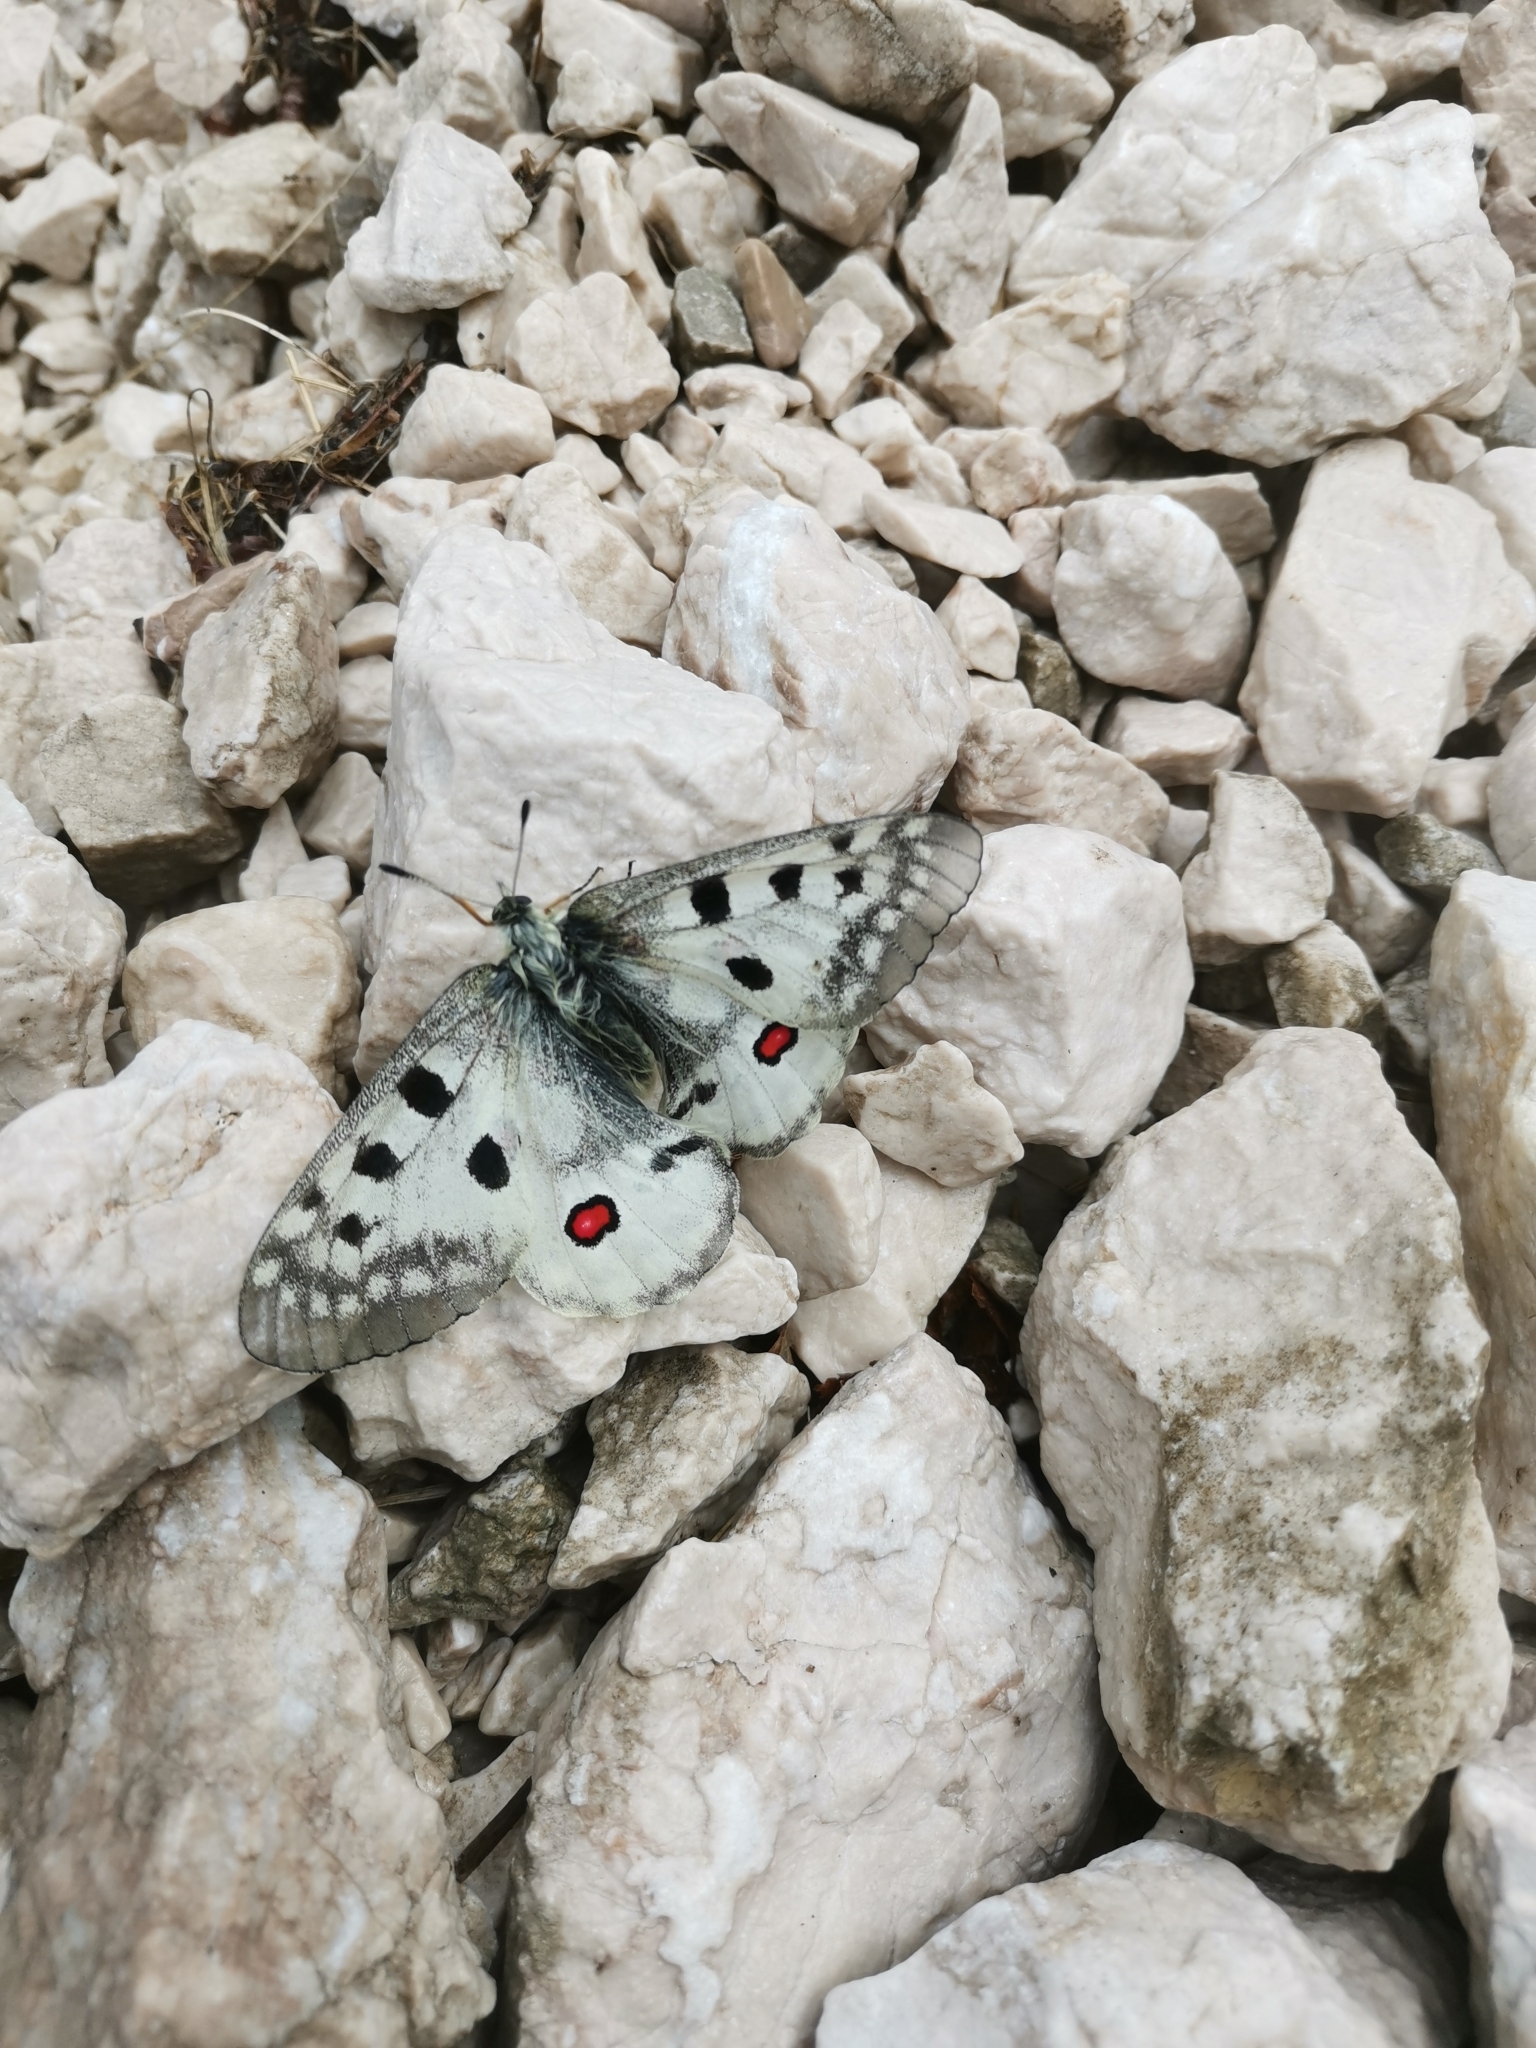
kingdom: Animalia
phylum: Arthropoda
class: Insecta
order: Lepidoptera
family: Papilionidae
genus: Parnassius
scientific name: Parnassius apollo
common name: Apollo
